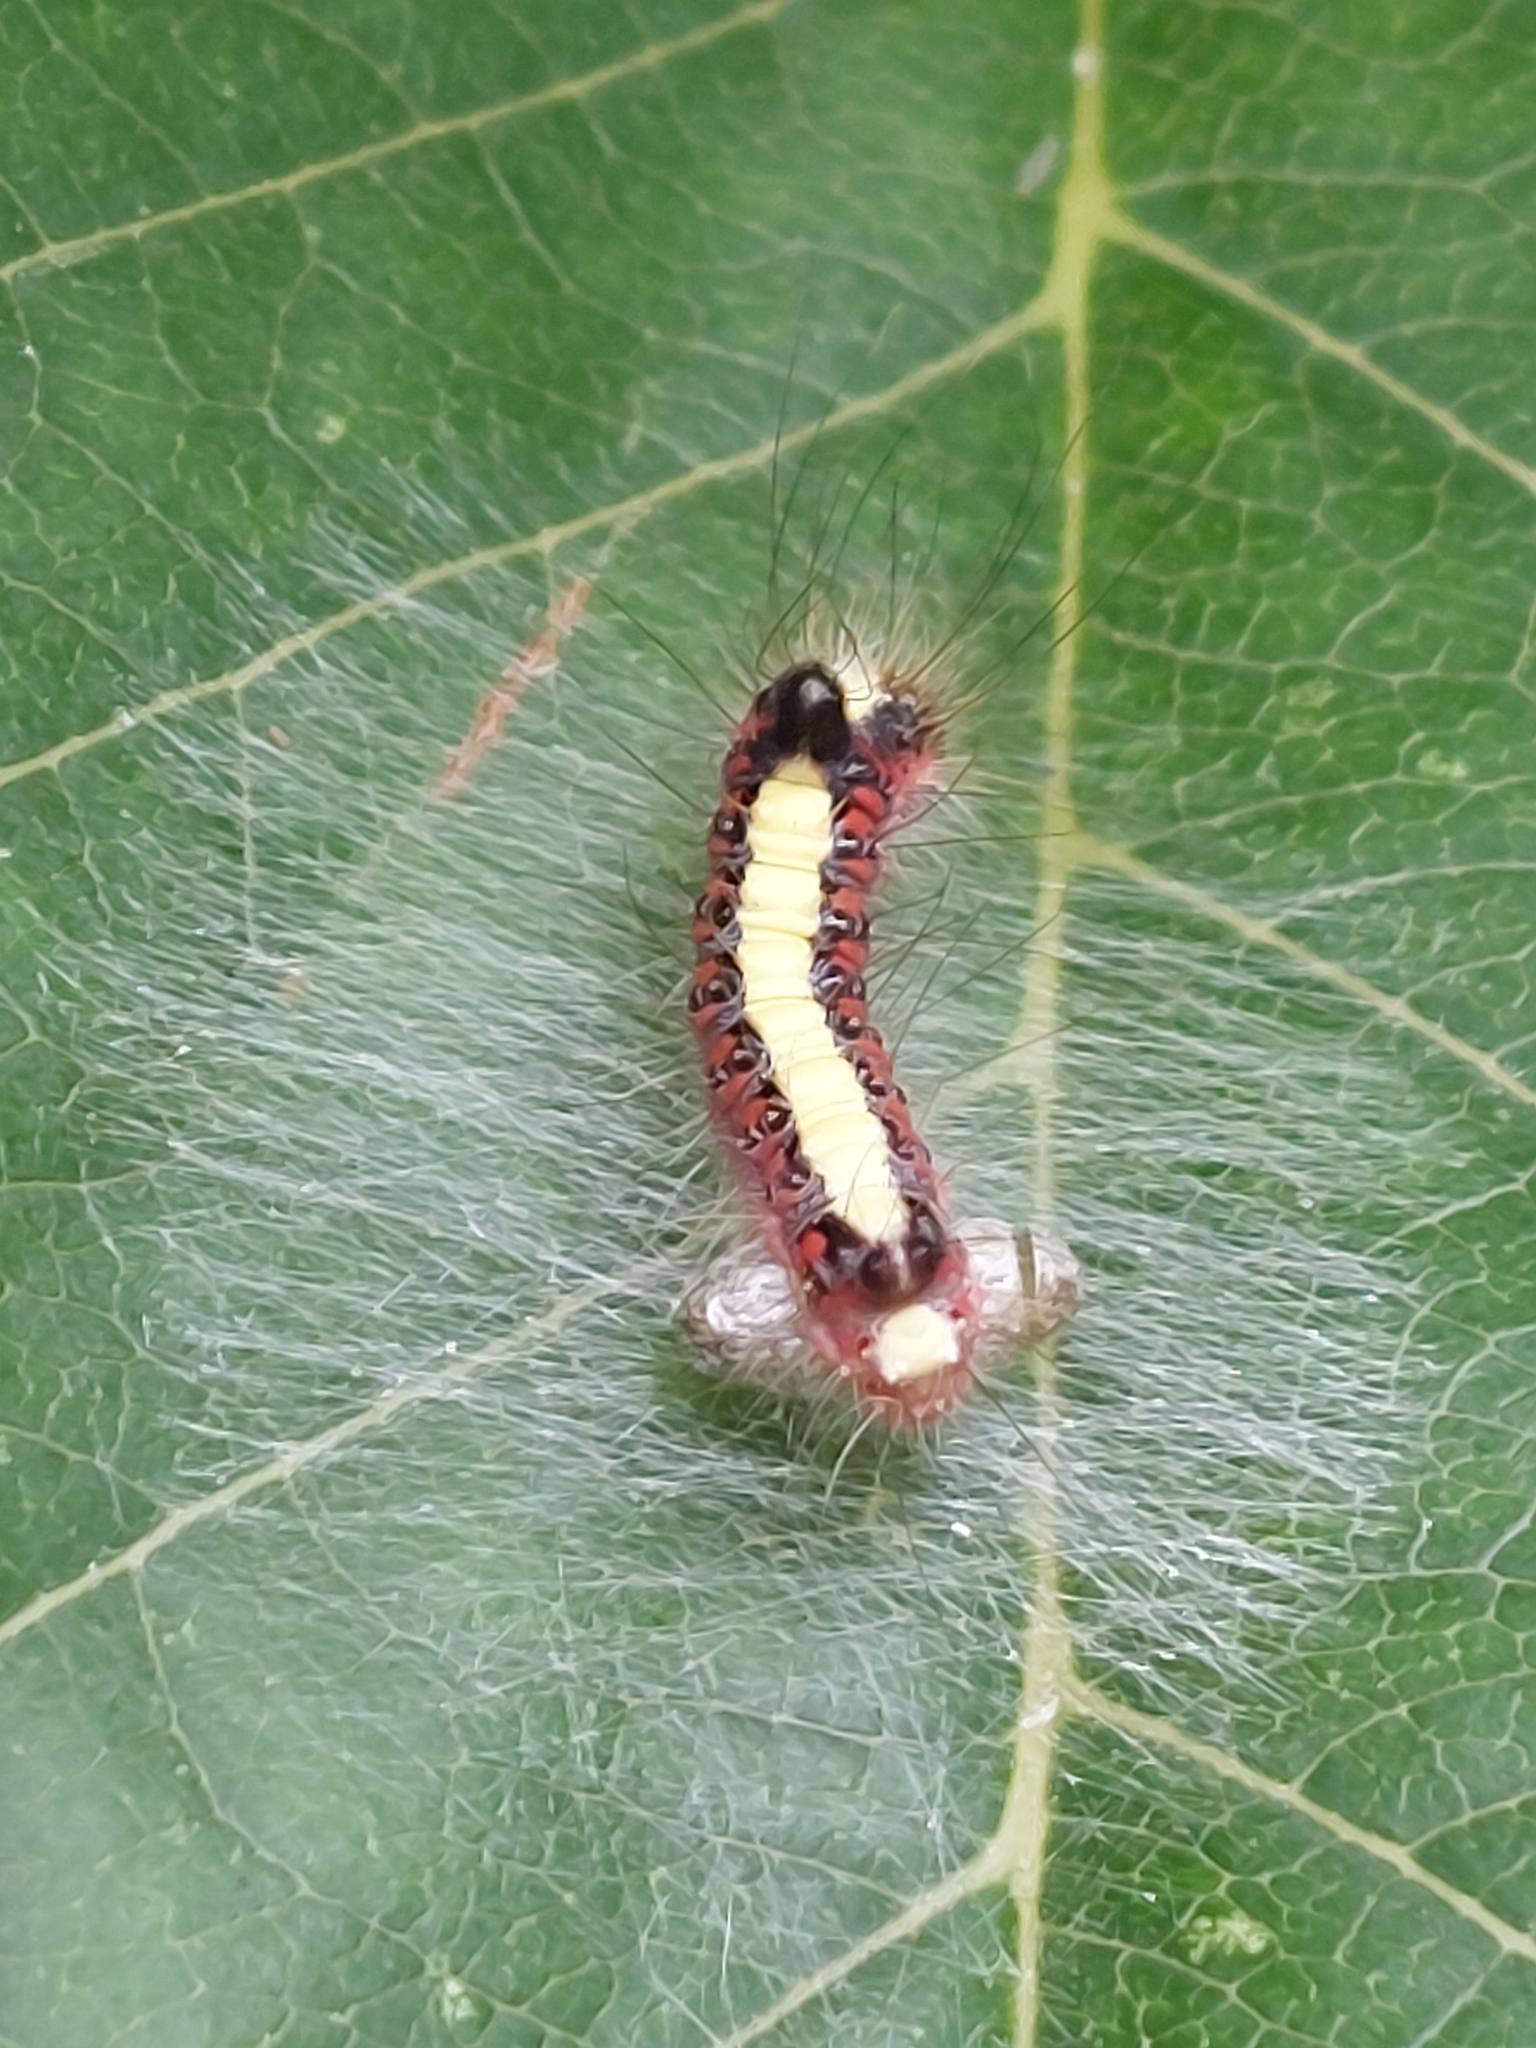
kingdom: Animalia
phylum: Arthropoda
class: Insecta
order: Lepidoptera
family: Noctuidae
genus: Acronicta
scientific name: Acronicta psi
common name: Grey dagger
